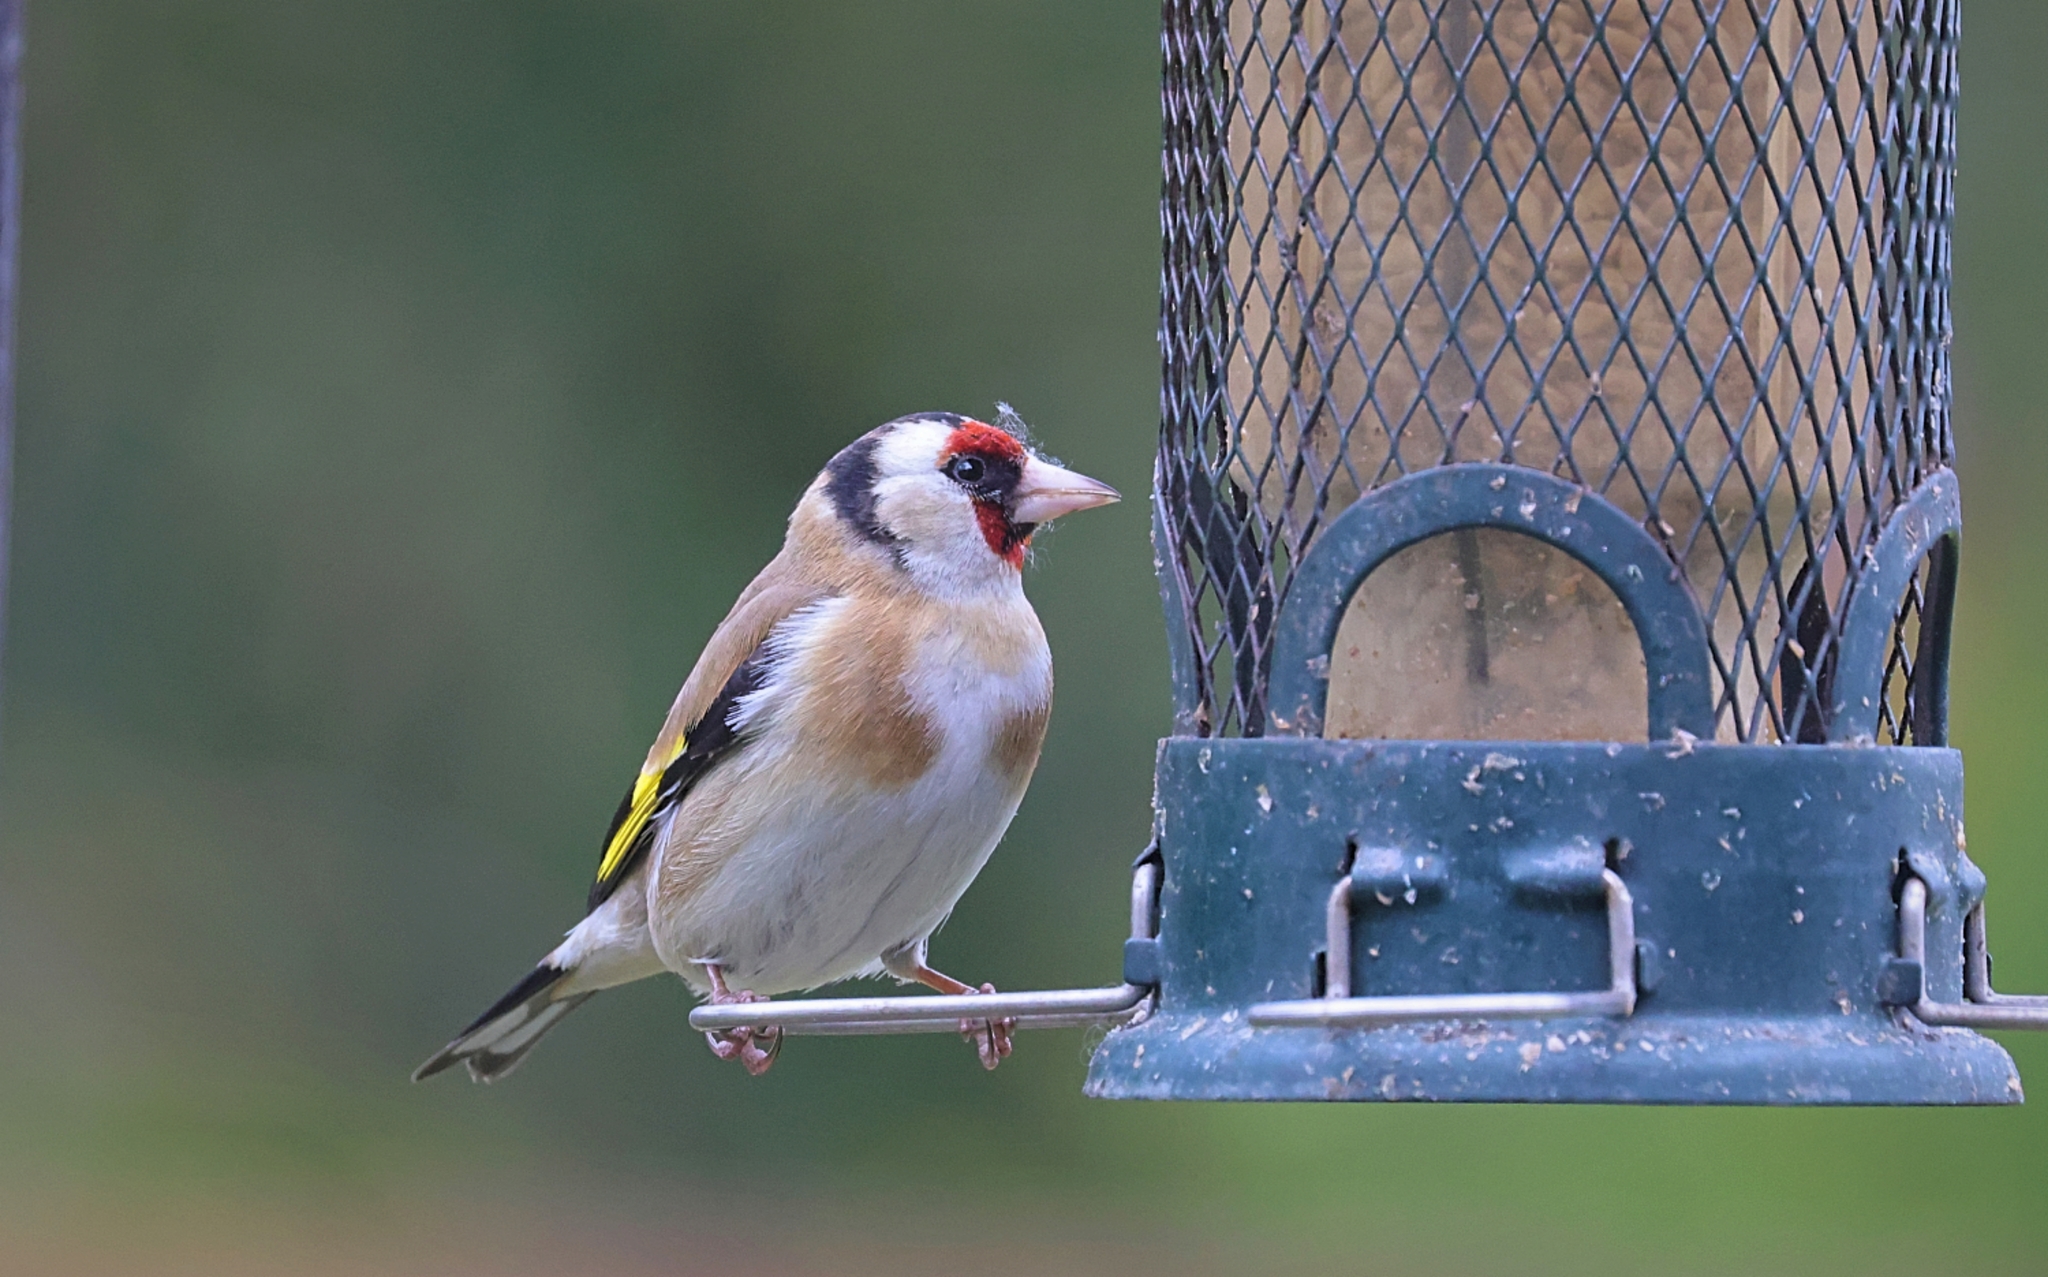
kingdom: Animalia
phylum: Chordata
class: Aves
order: Passeriformes
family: Fringillidae
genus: Carduelis
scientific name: Carduelis carduelis
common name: European goldfinch
